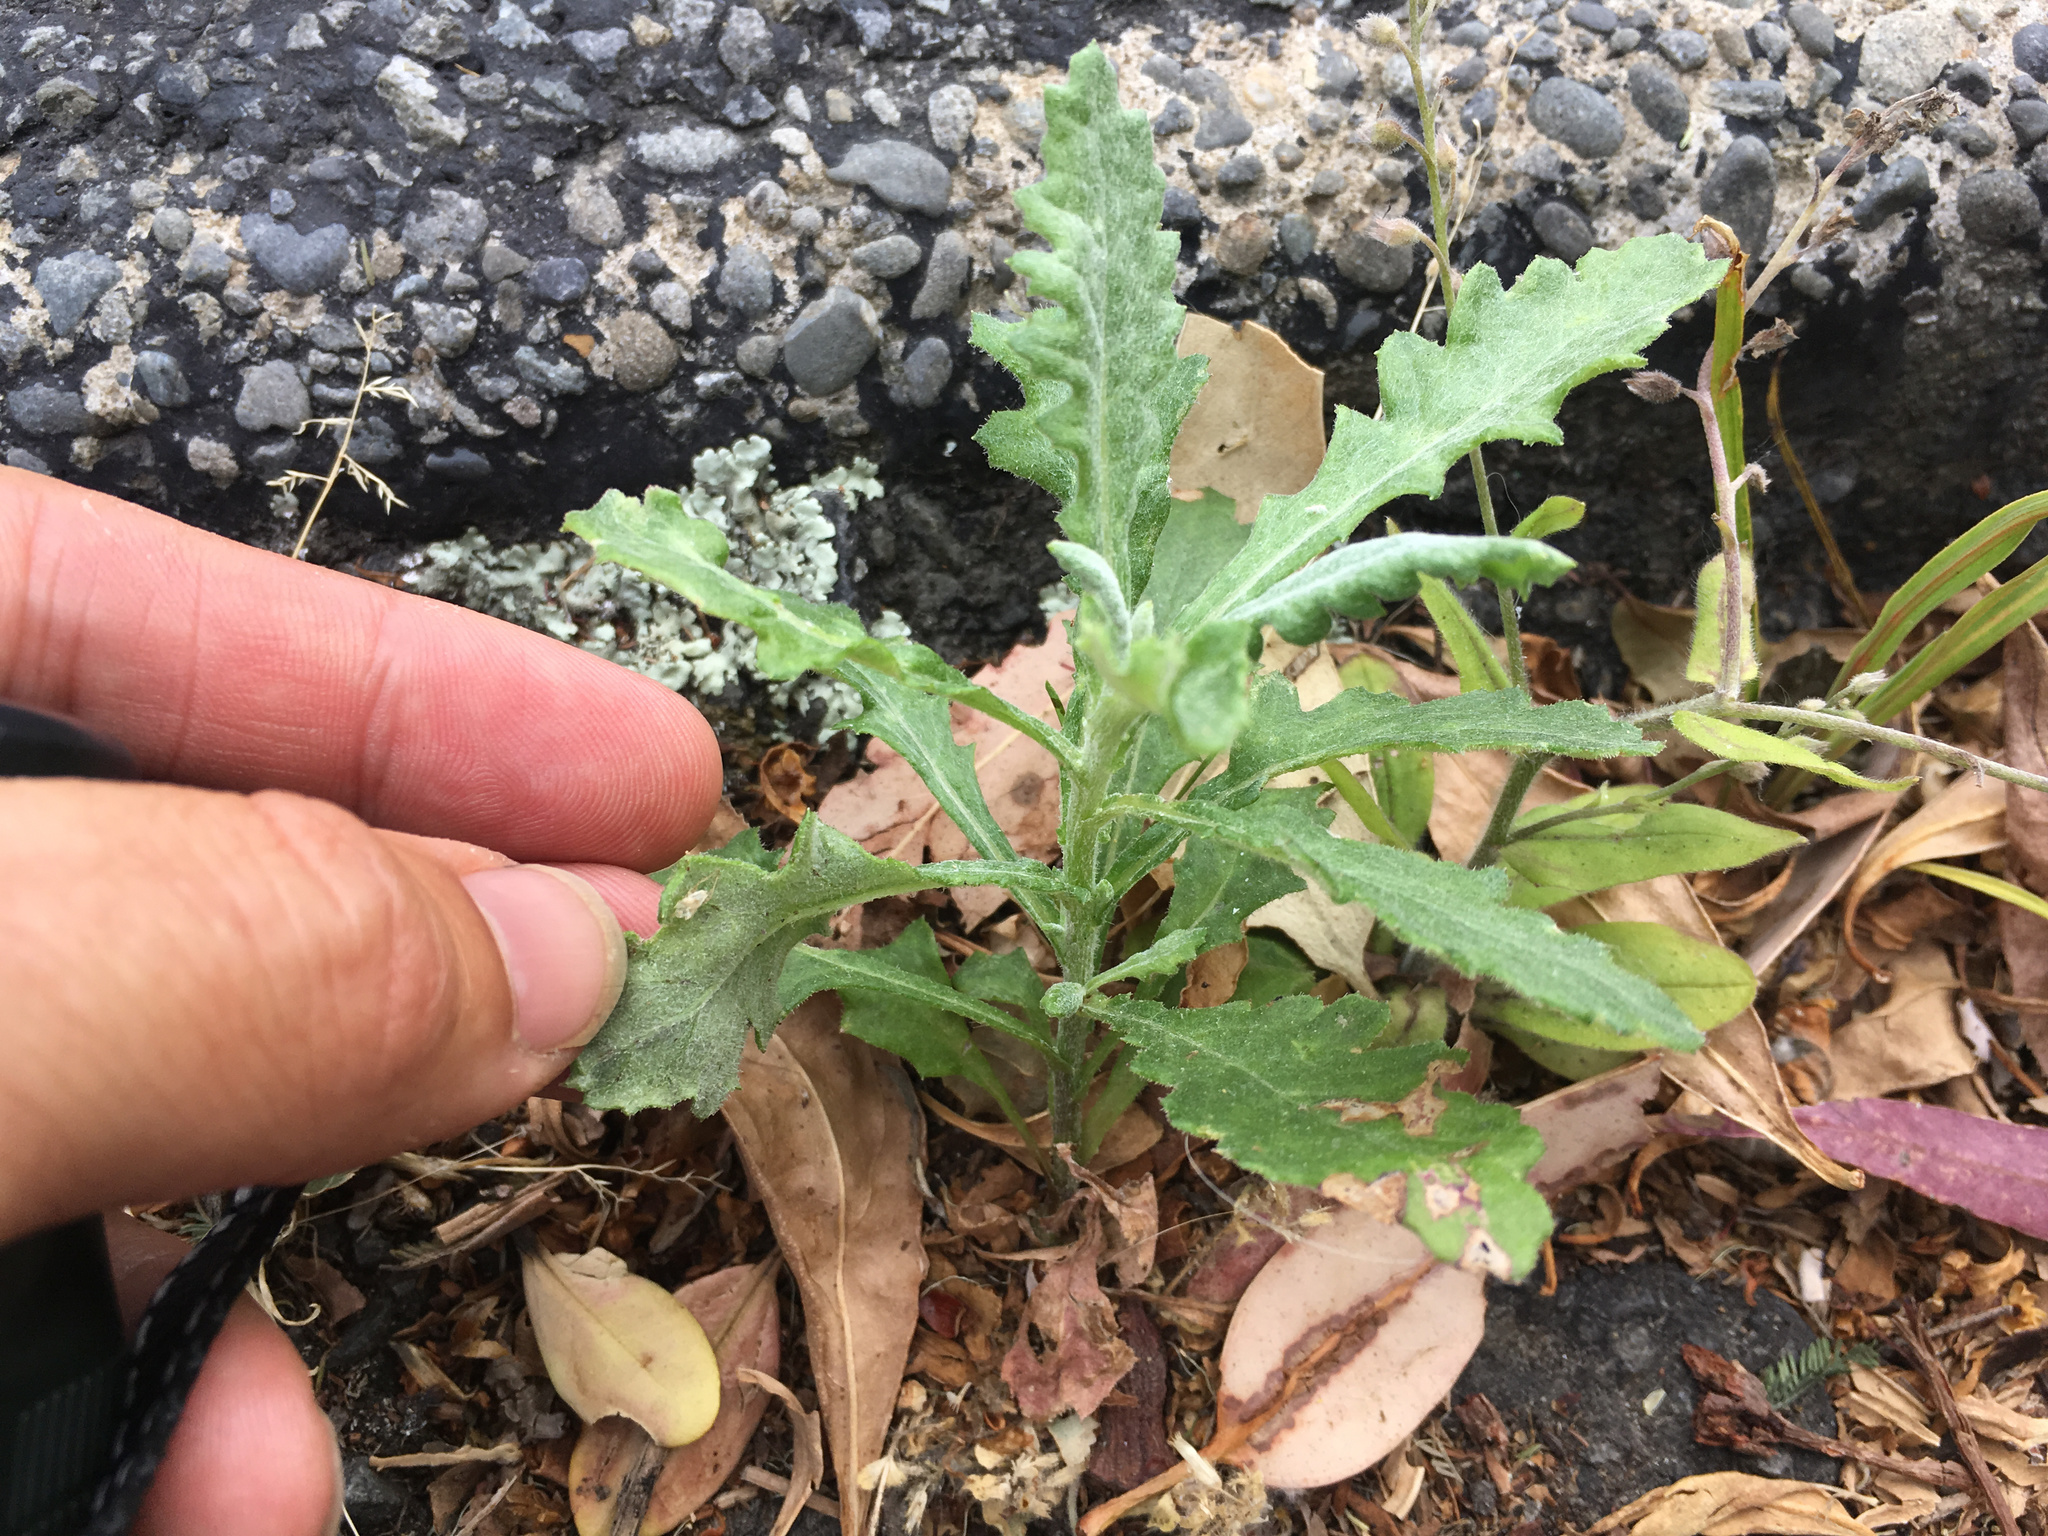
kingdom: Plantae
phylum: Tracheophyta
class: Magnoliopsida
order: Asterales
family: Asteraceae
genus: Senecio
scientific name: Senecio glomeratus
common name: Cutleaf burnweed
